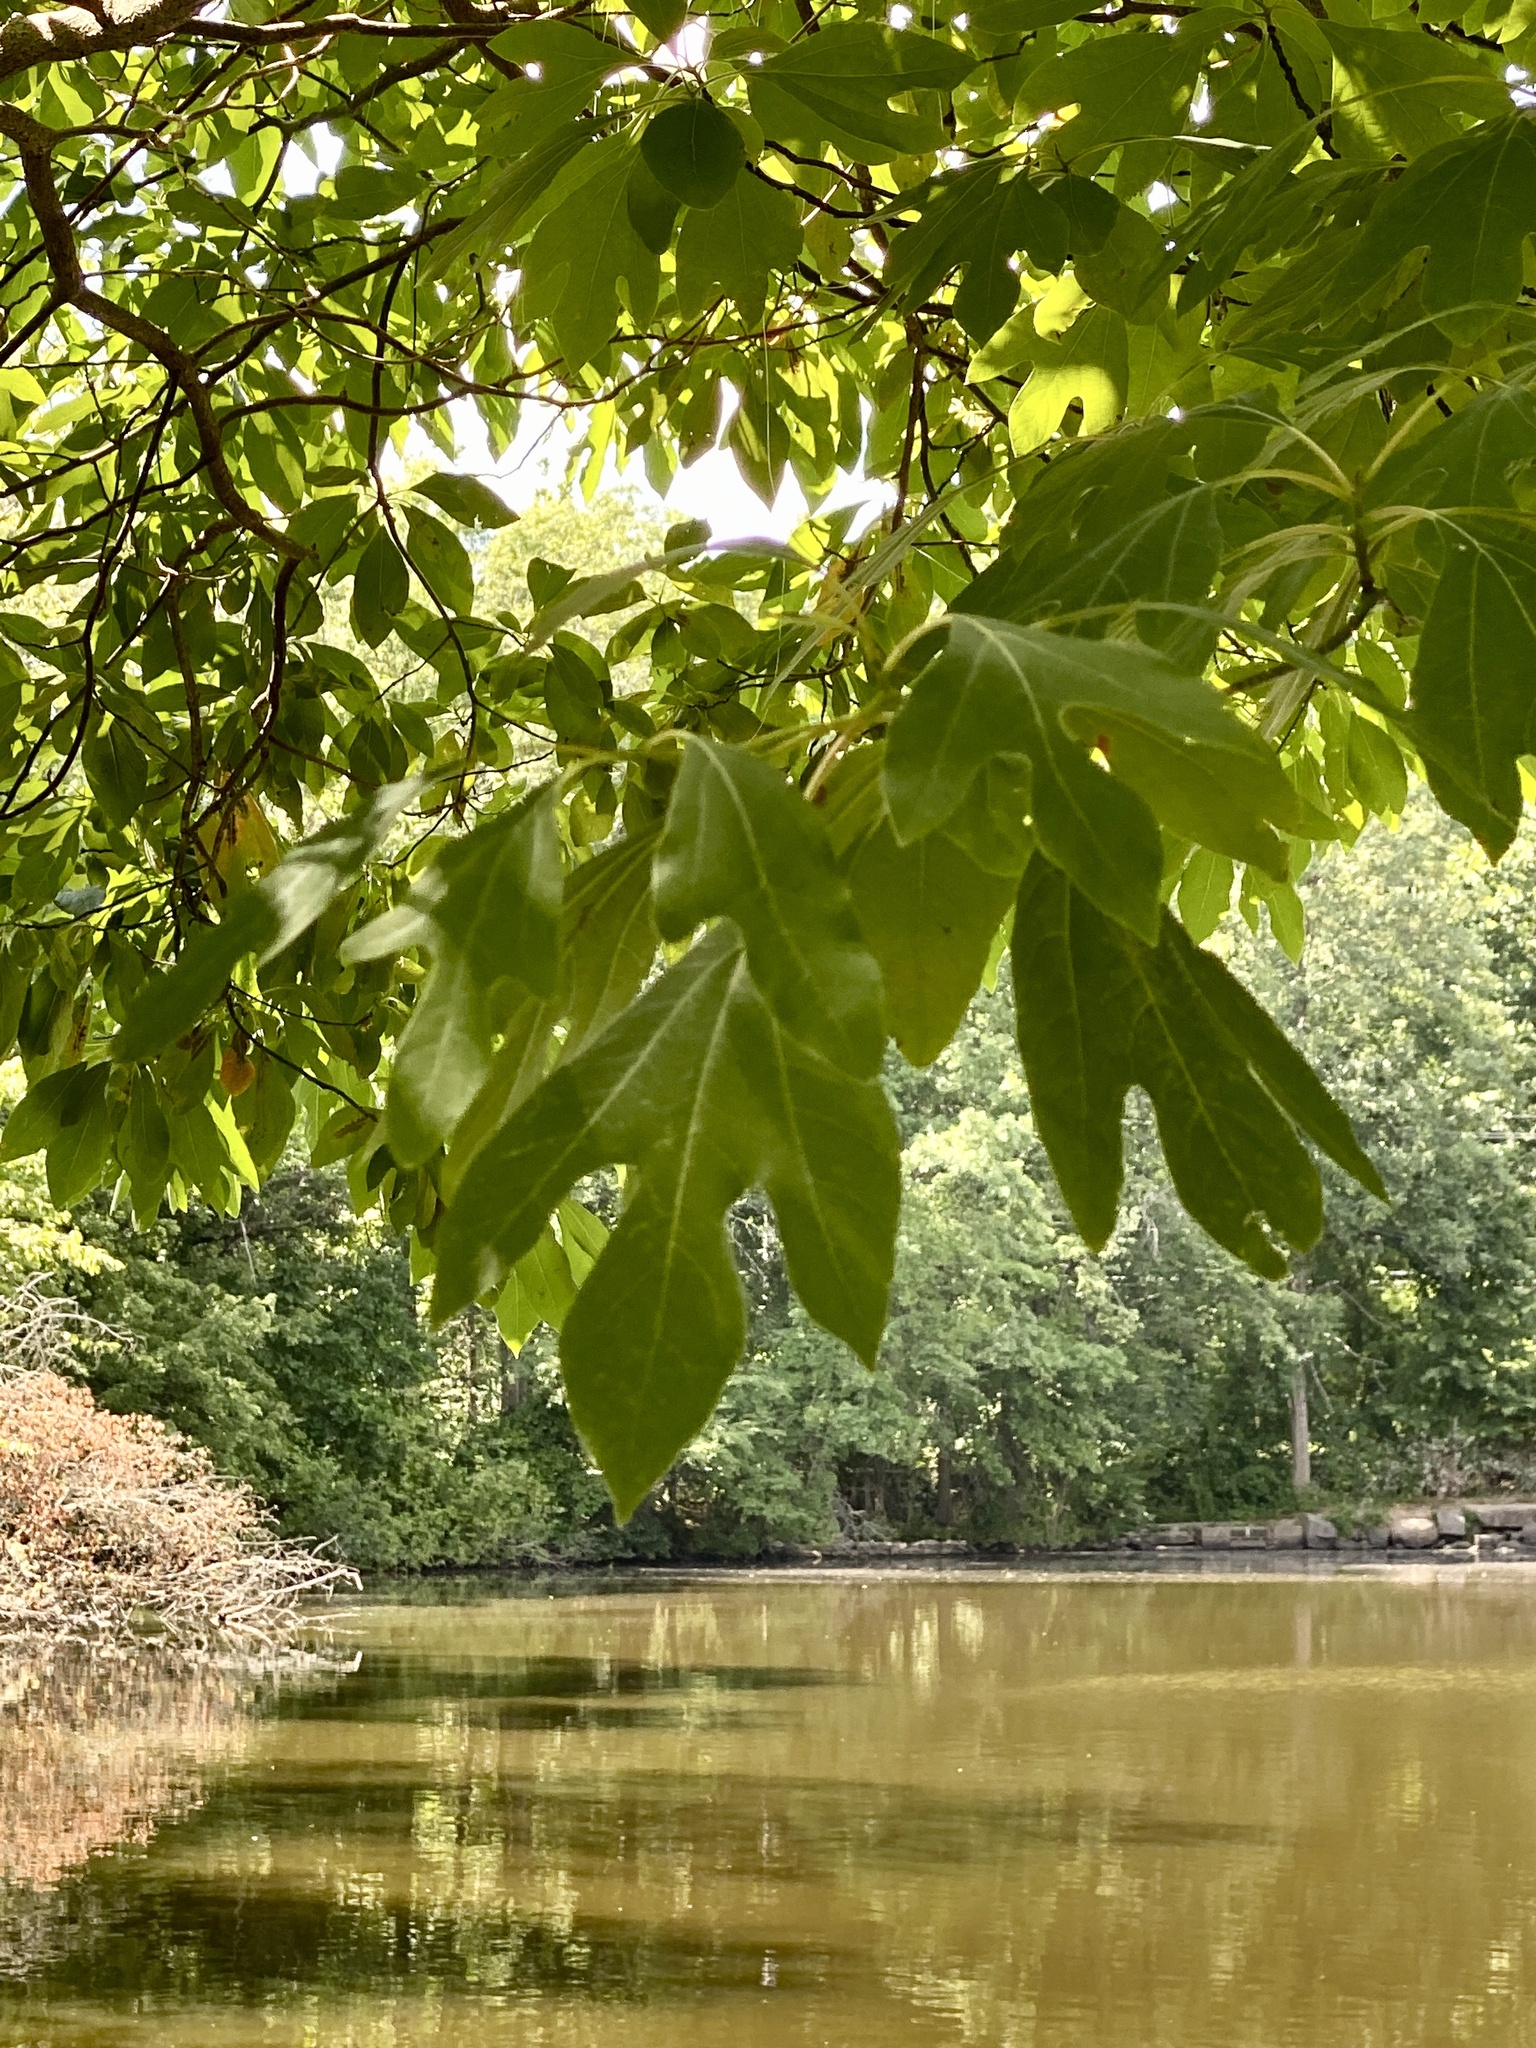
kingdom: Plantae
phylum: Tracheophyta
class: Magnoliopsida
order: Laurales
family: Lauraceae
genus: Sassafras
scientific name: Sassafras albidum
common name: Sassafras
